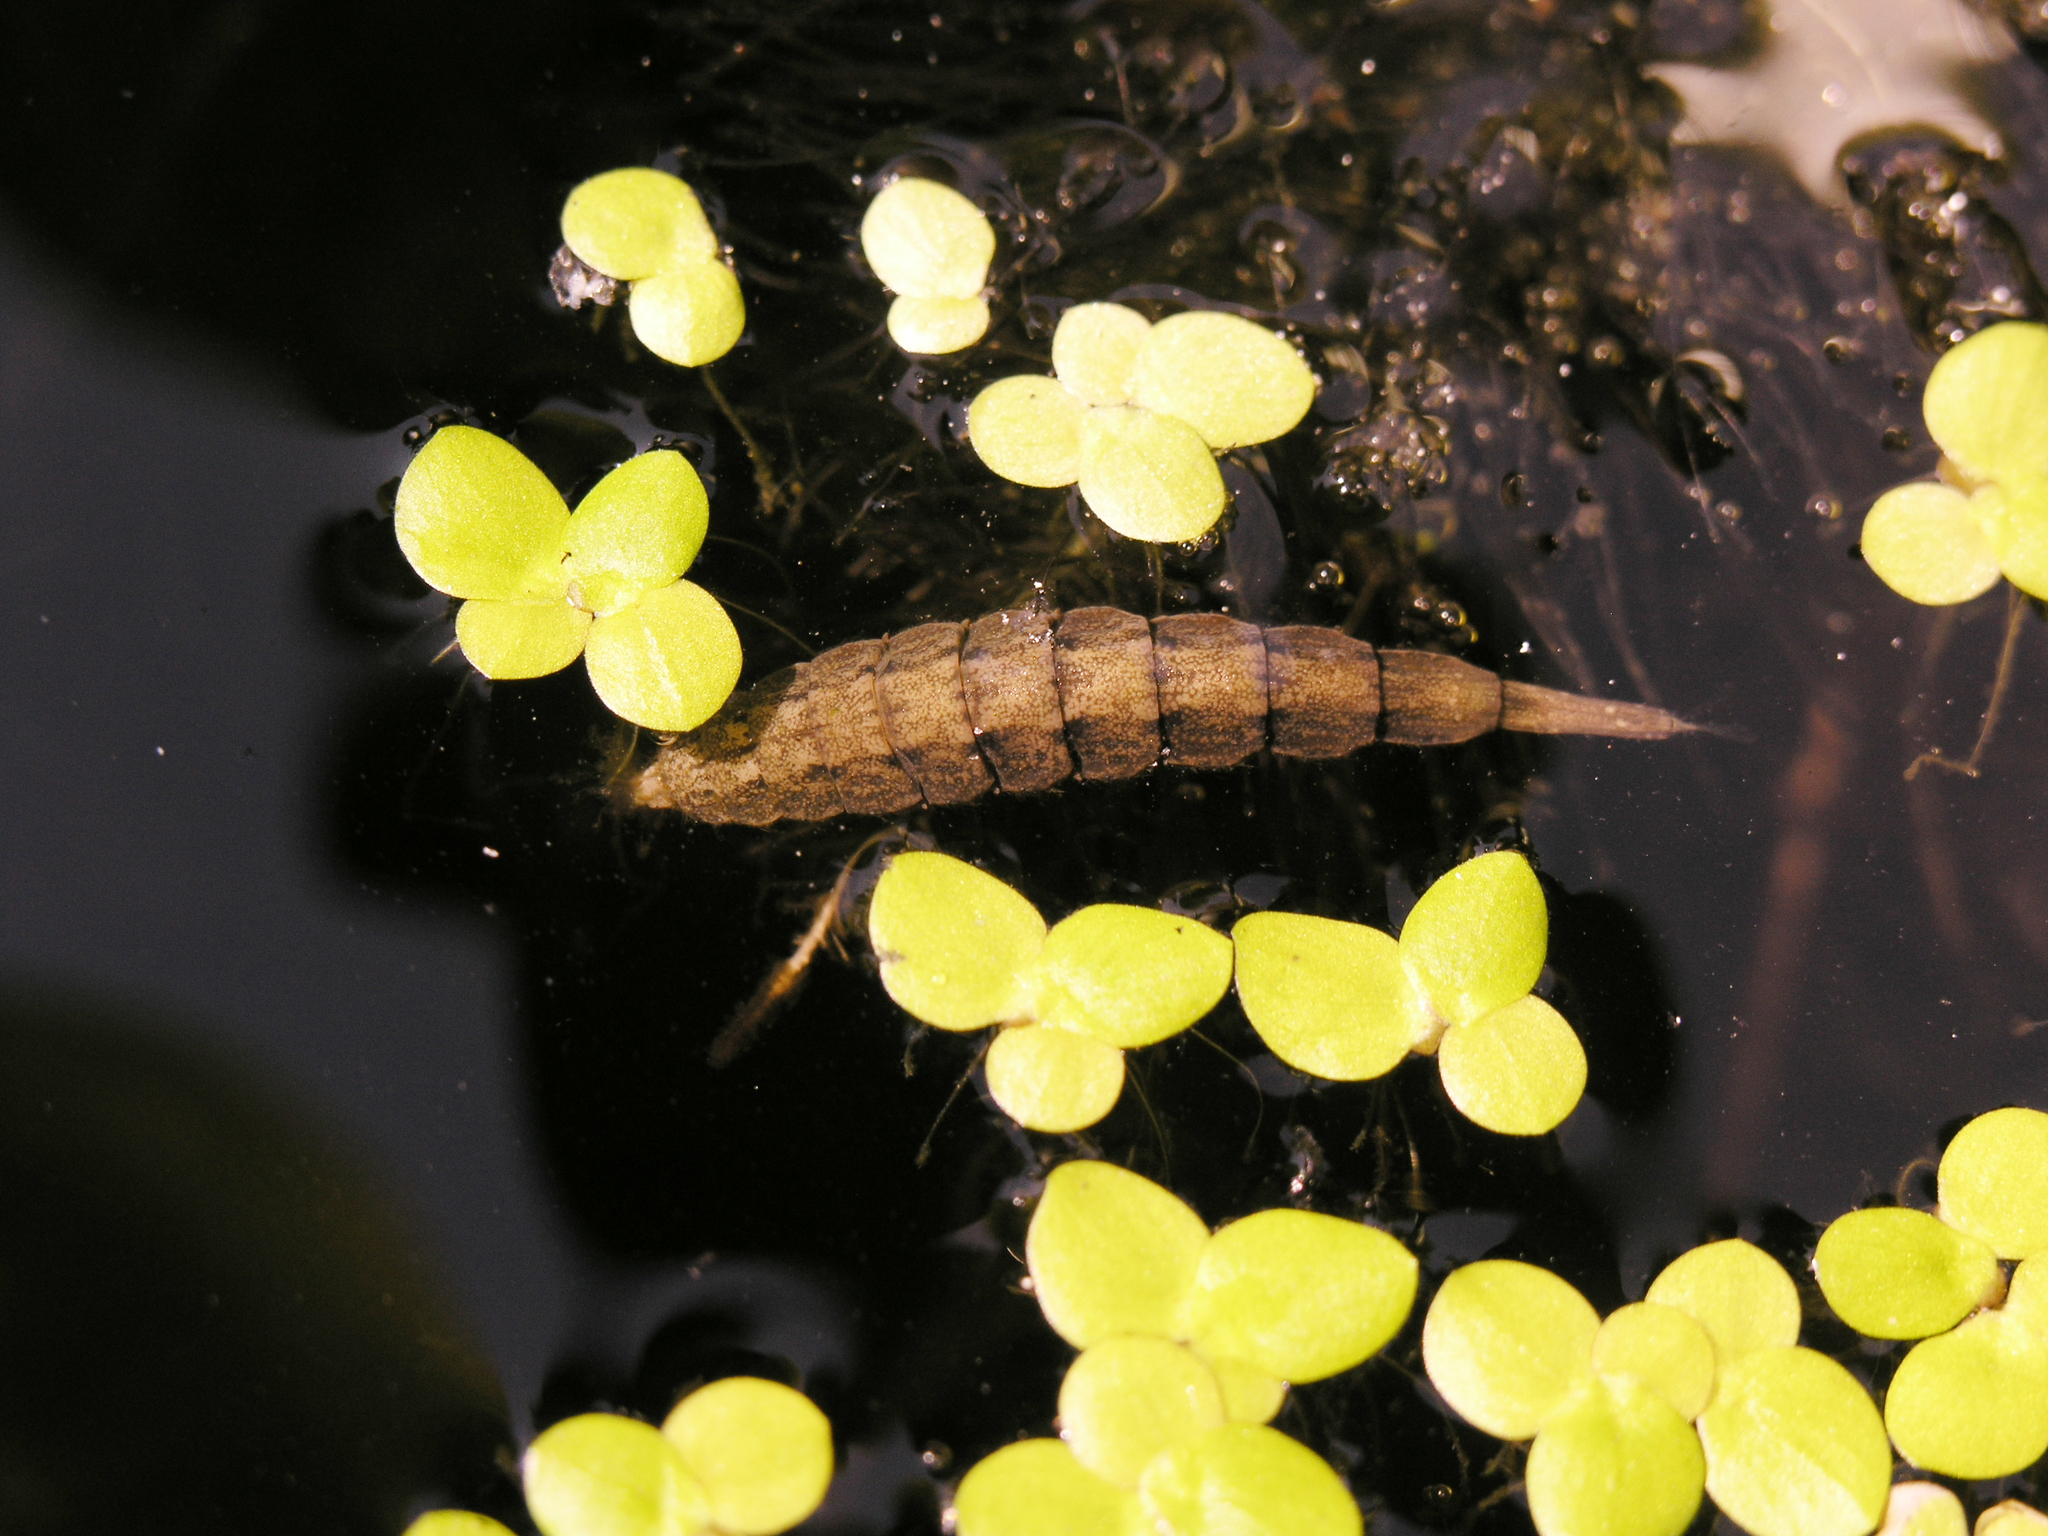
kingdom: Plantae
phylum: Tracheophyta
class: Liliopsida
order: Alismatales
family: Araceae
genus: Spirodela
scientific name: Spirodela polyrhiza
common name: Great duckweed
